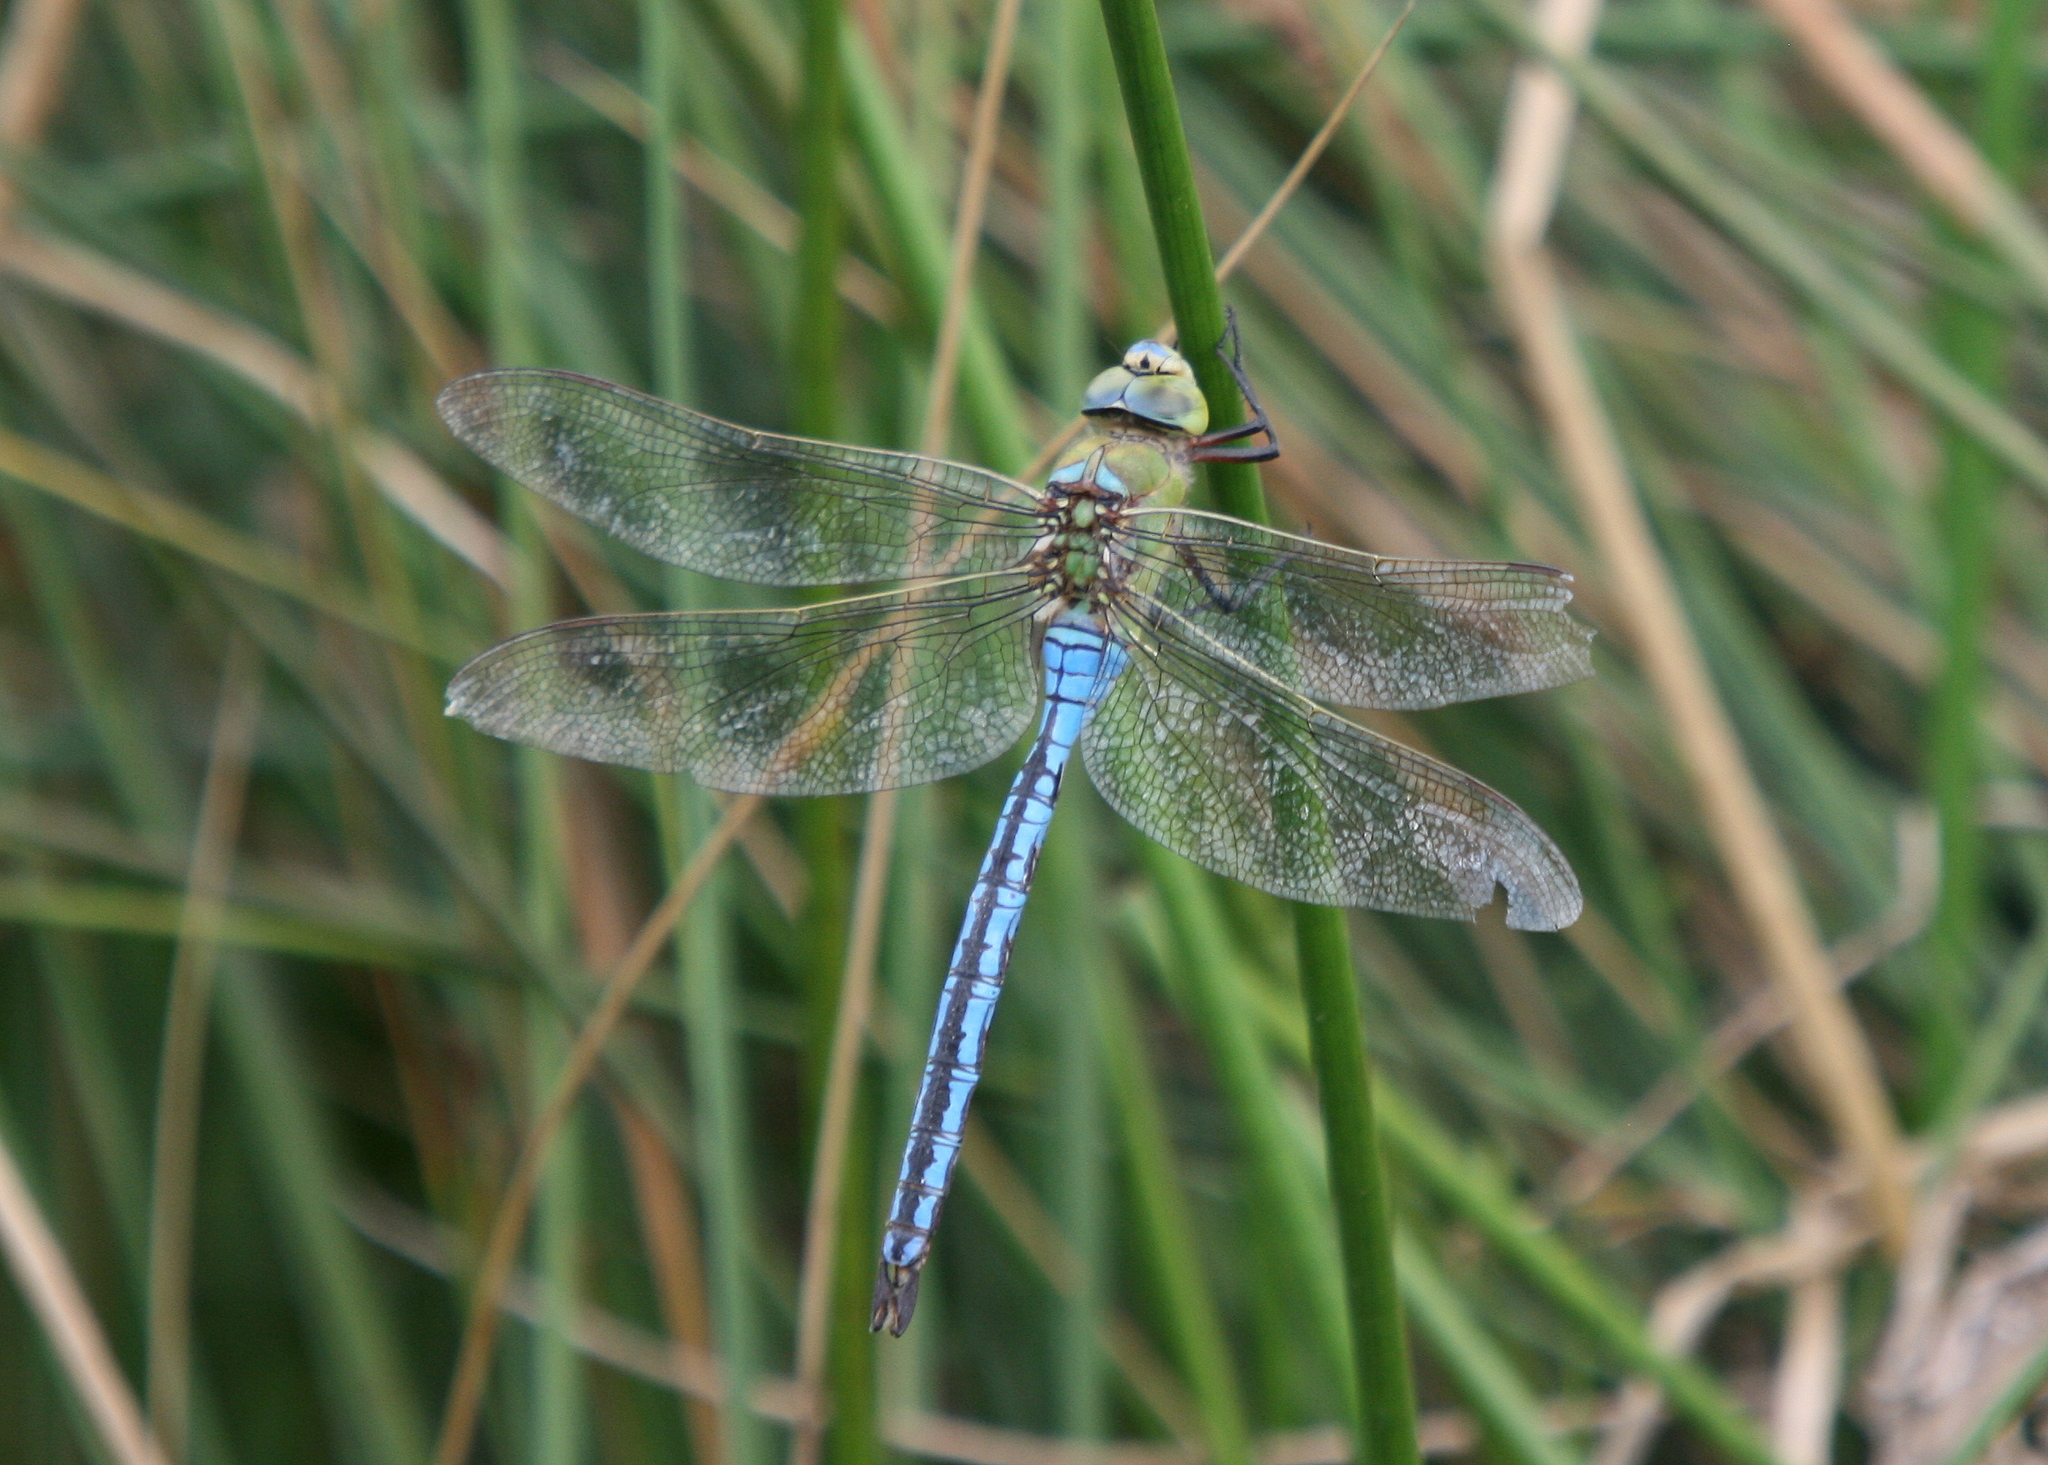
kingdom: Animalia
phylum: Arthropoda
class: Insecta
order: Odonata
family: Aeshnidae
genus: Anax
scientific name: Anax imperator
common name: Emperor dragonfly
